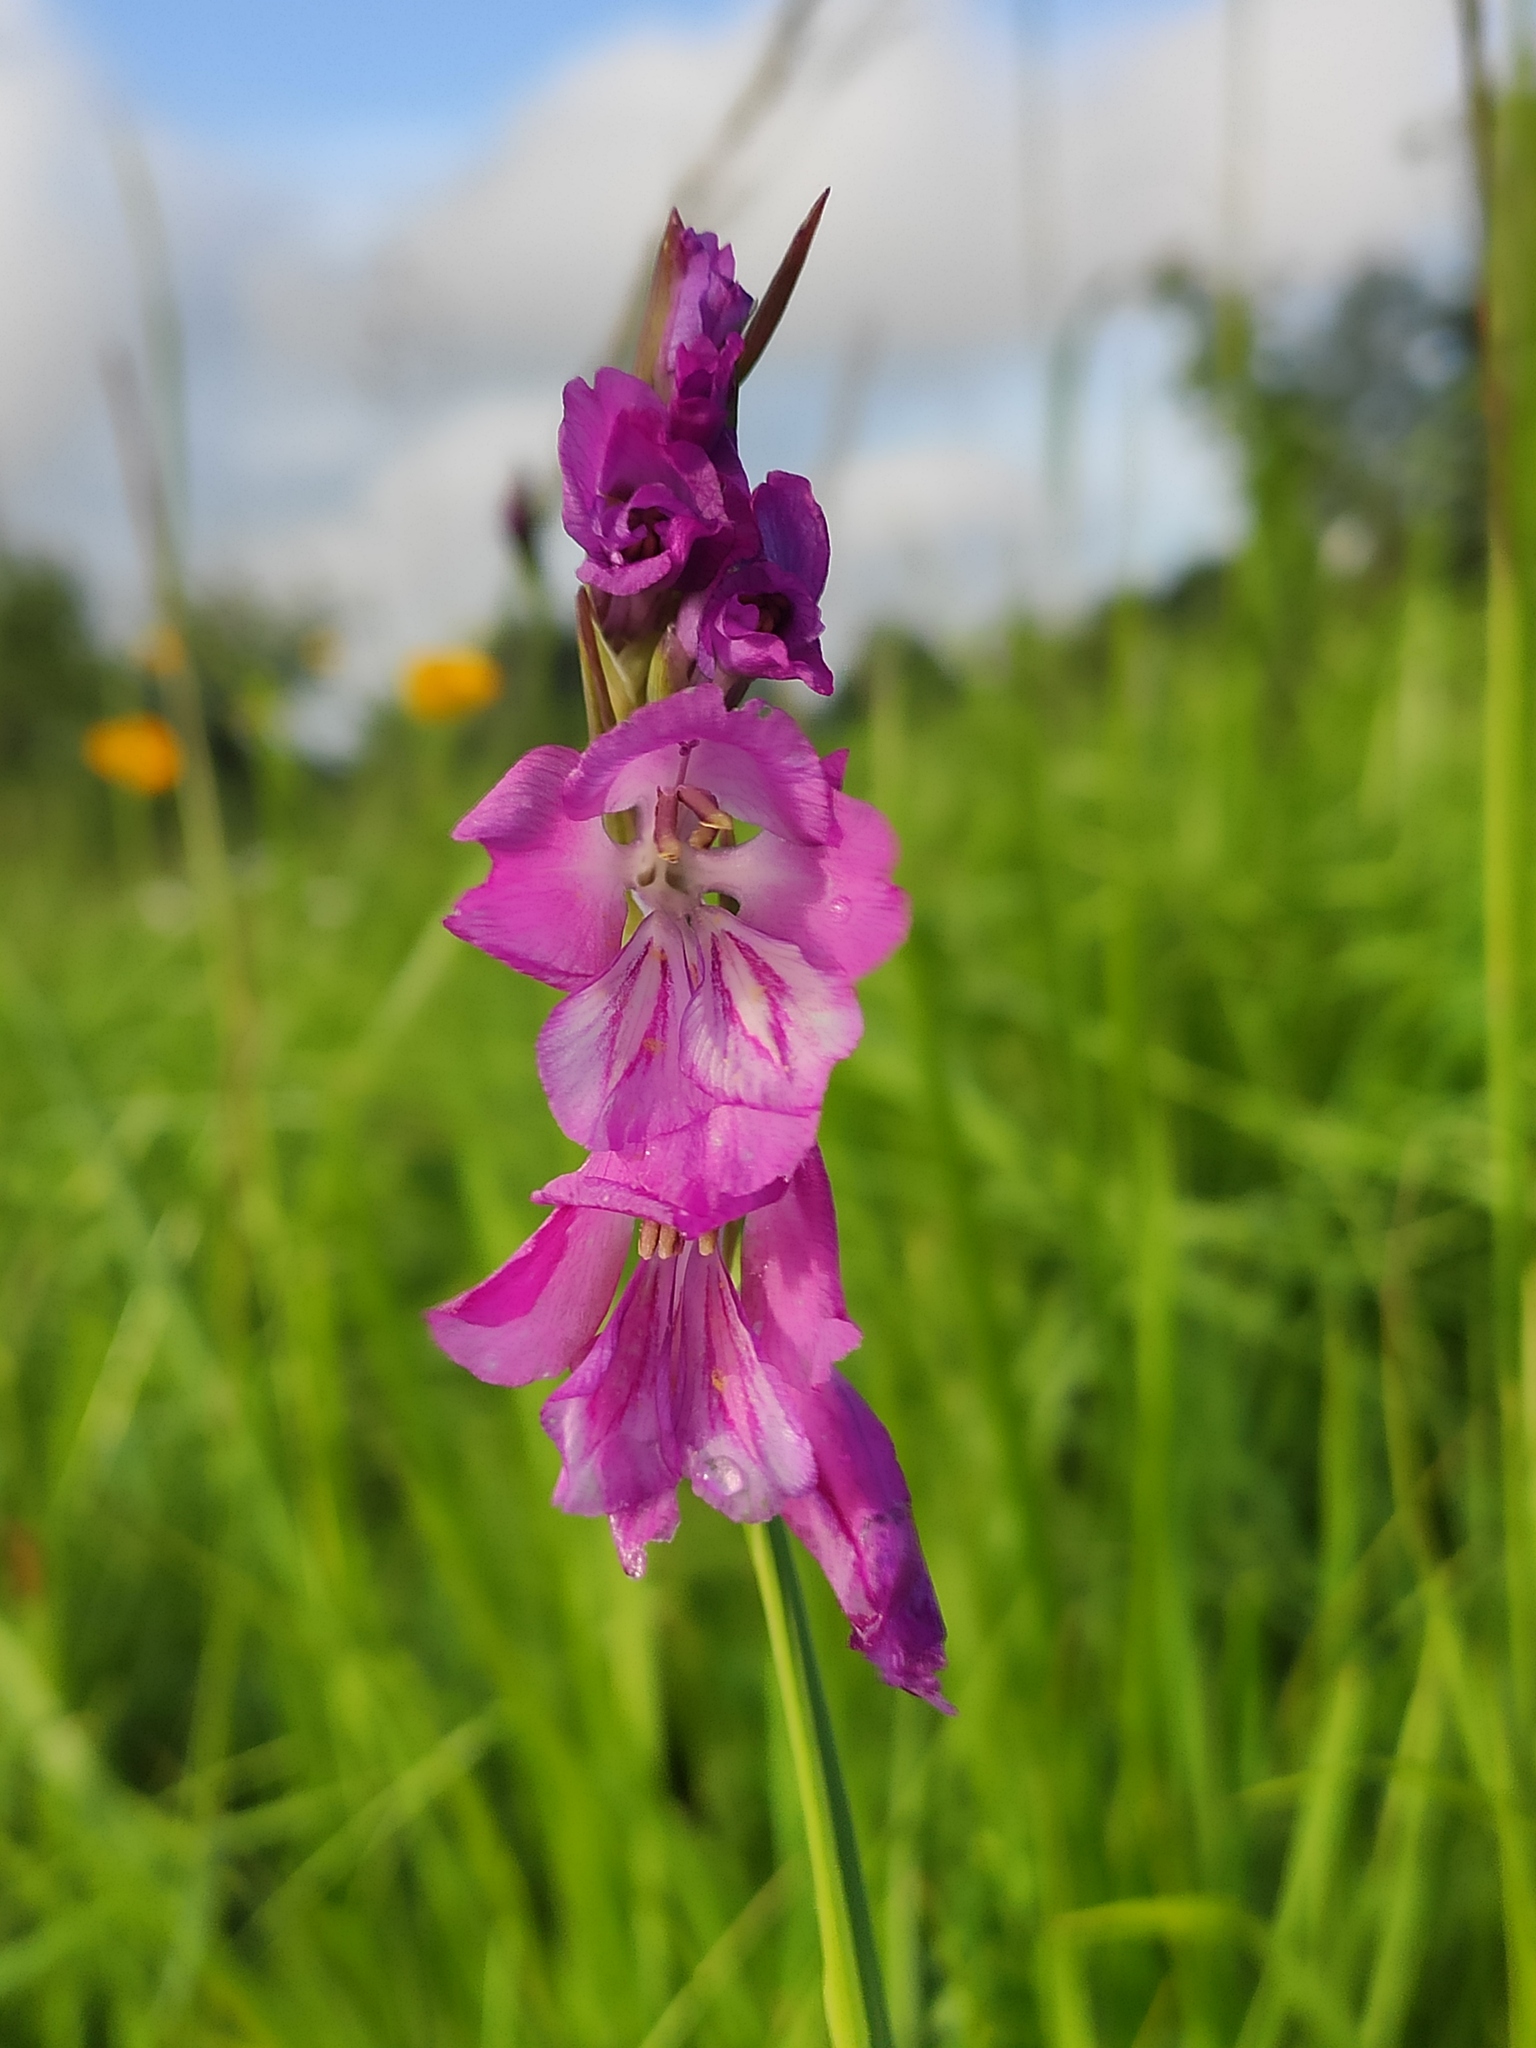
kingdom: Plantae
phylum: Tracheophyta
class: Liliopsida
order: Asparagales
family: Iridaceae
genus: Gladiolus
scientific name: Gladiolus tenuis
